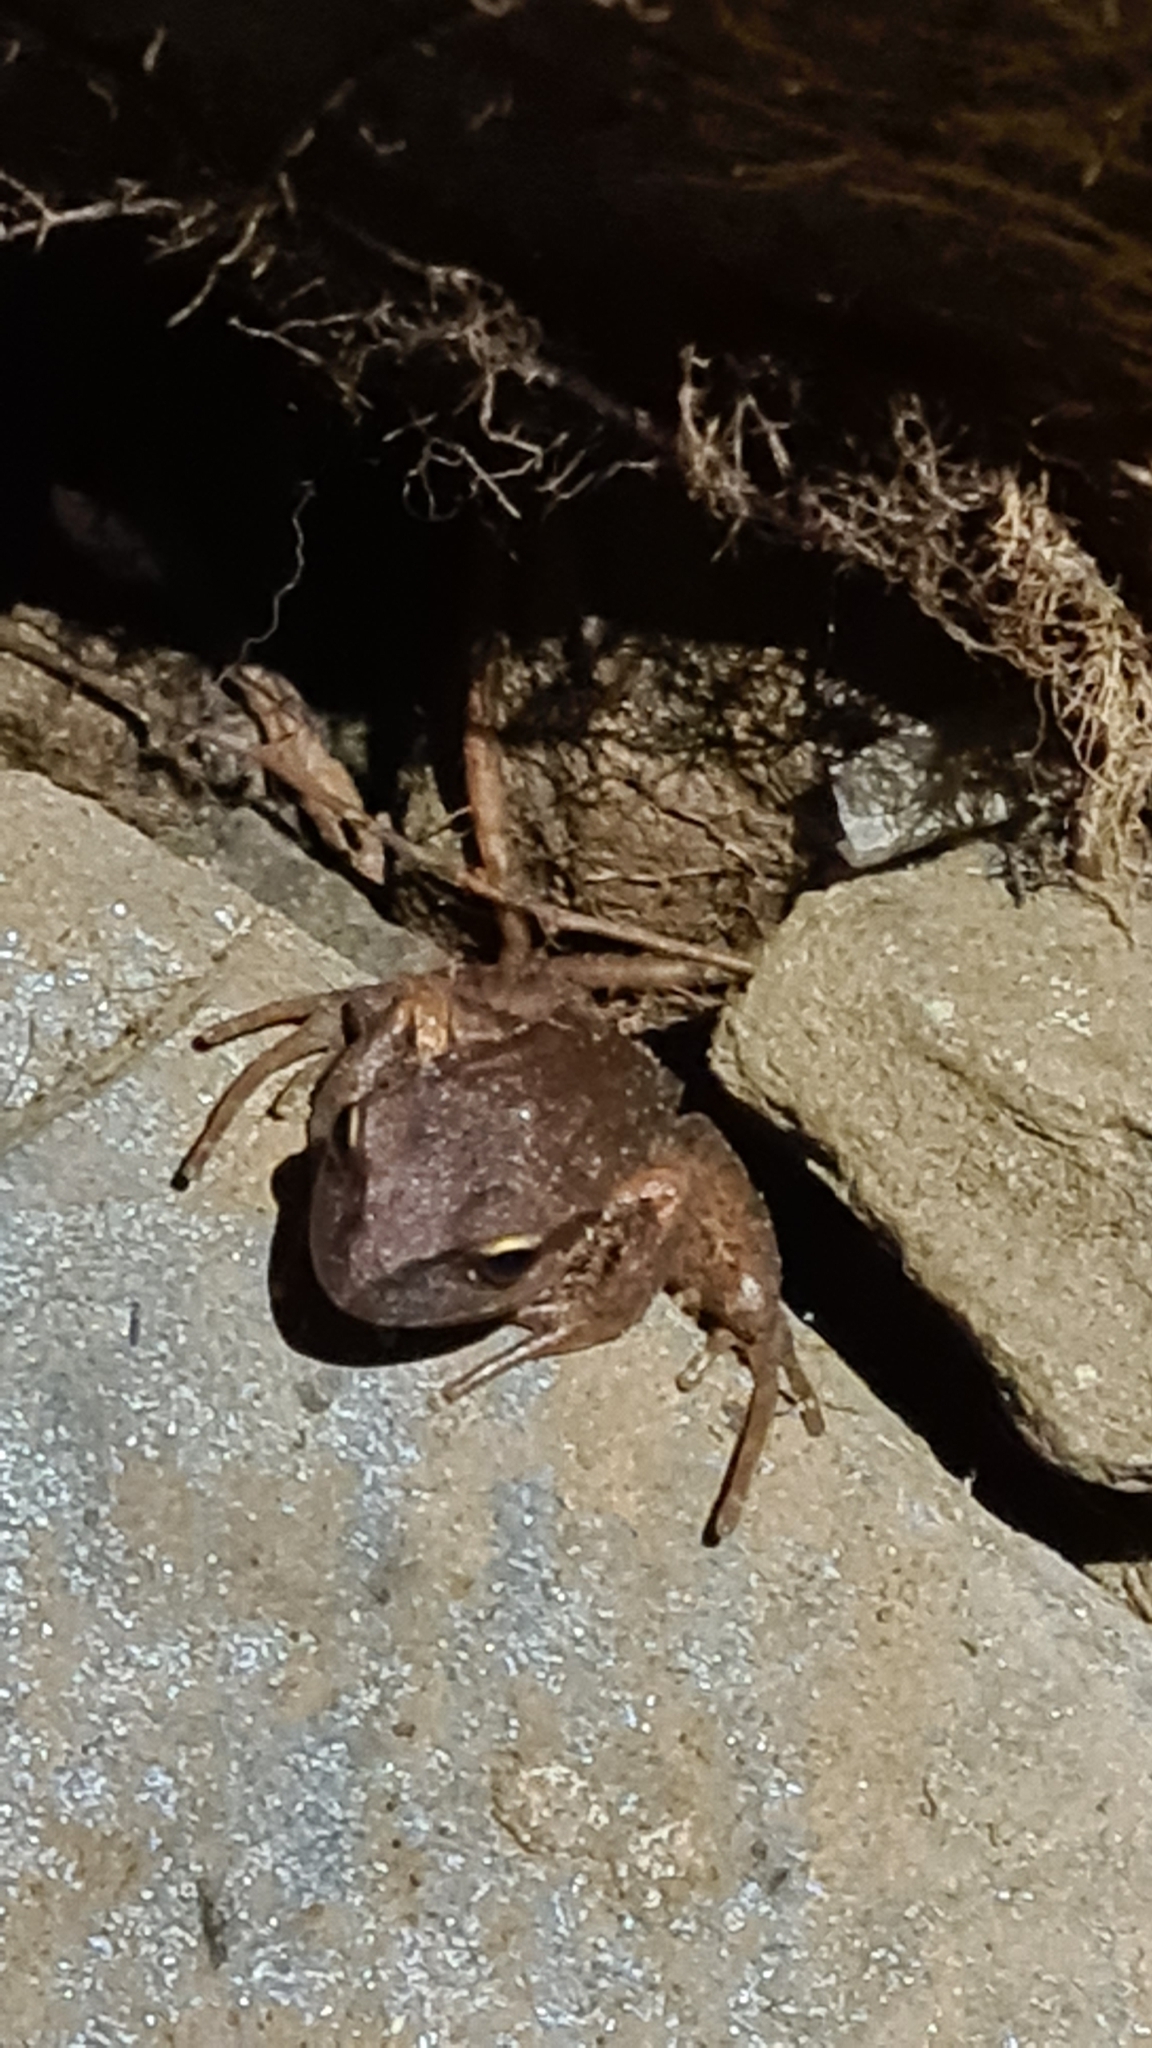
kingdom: Animalia
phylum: Chordata
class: Amphibia
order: Anura
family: Batrachylidae
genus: Batrachyla
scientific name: Batrachyla taeniata
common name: Banded wood frog
